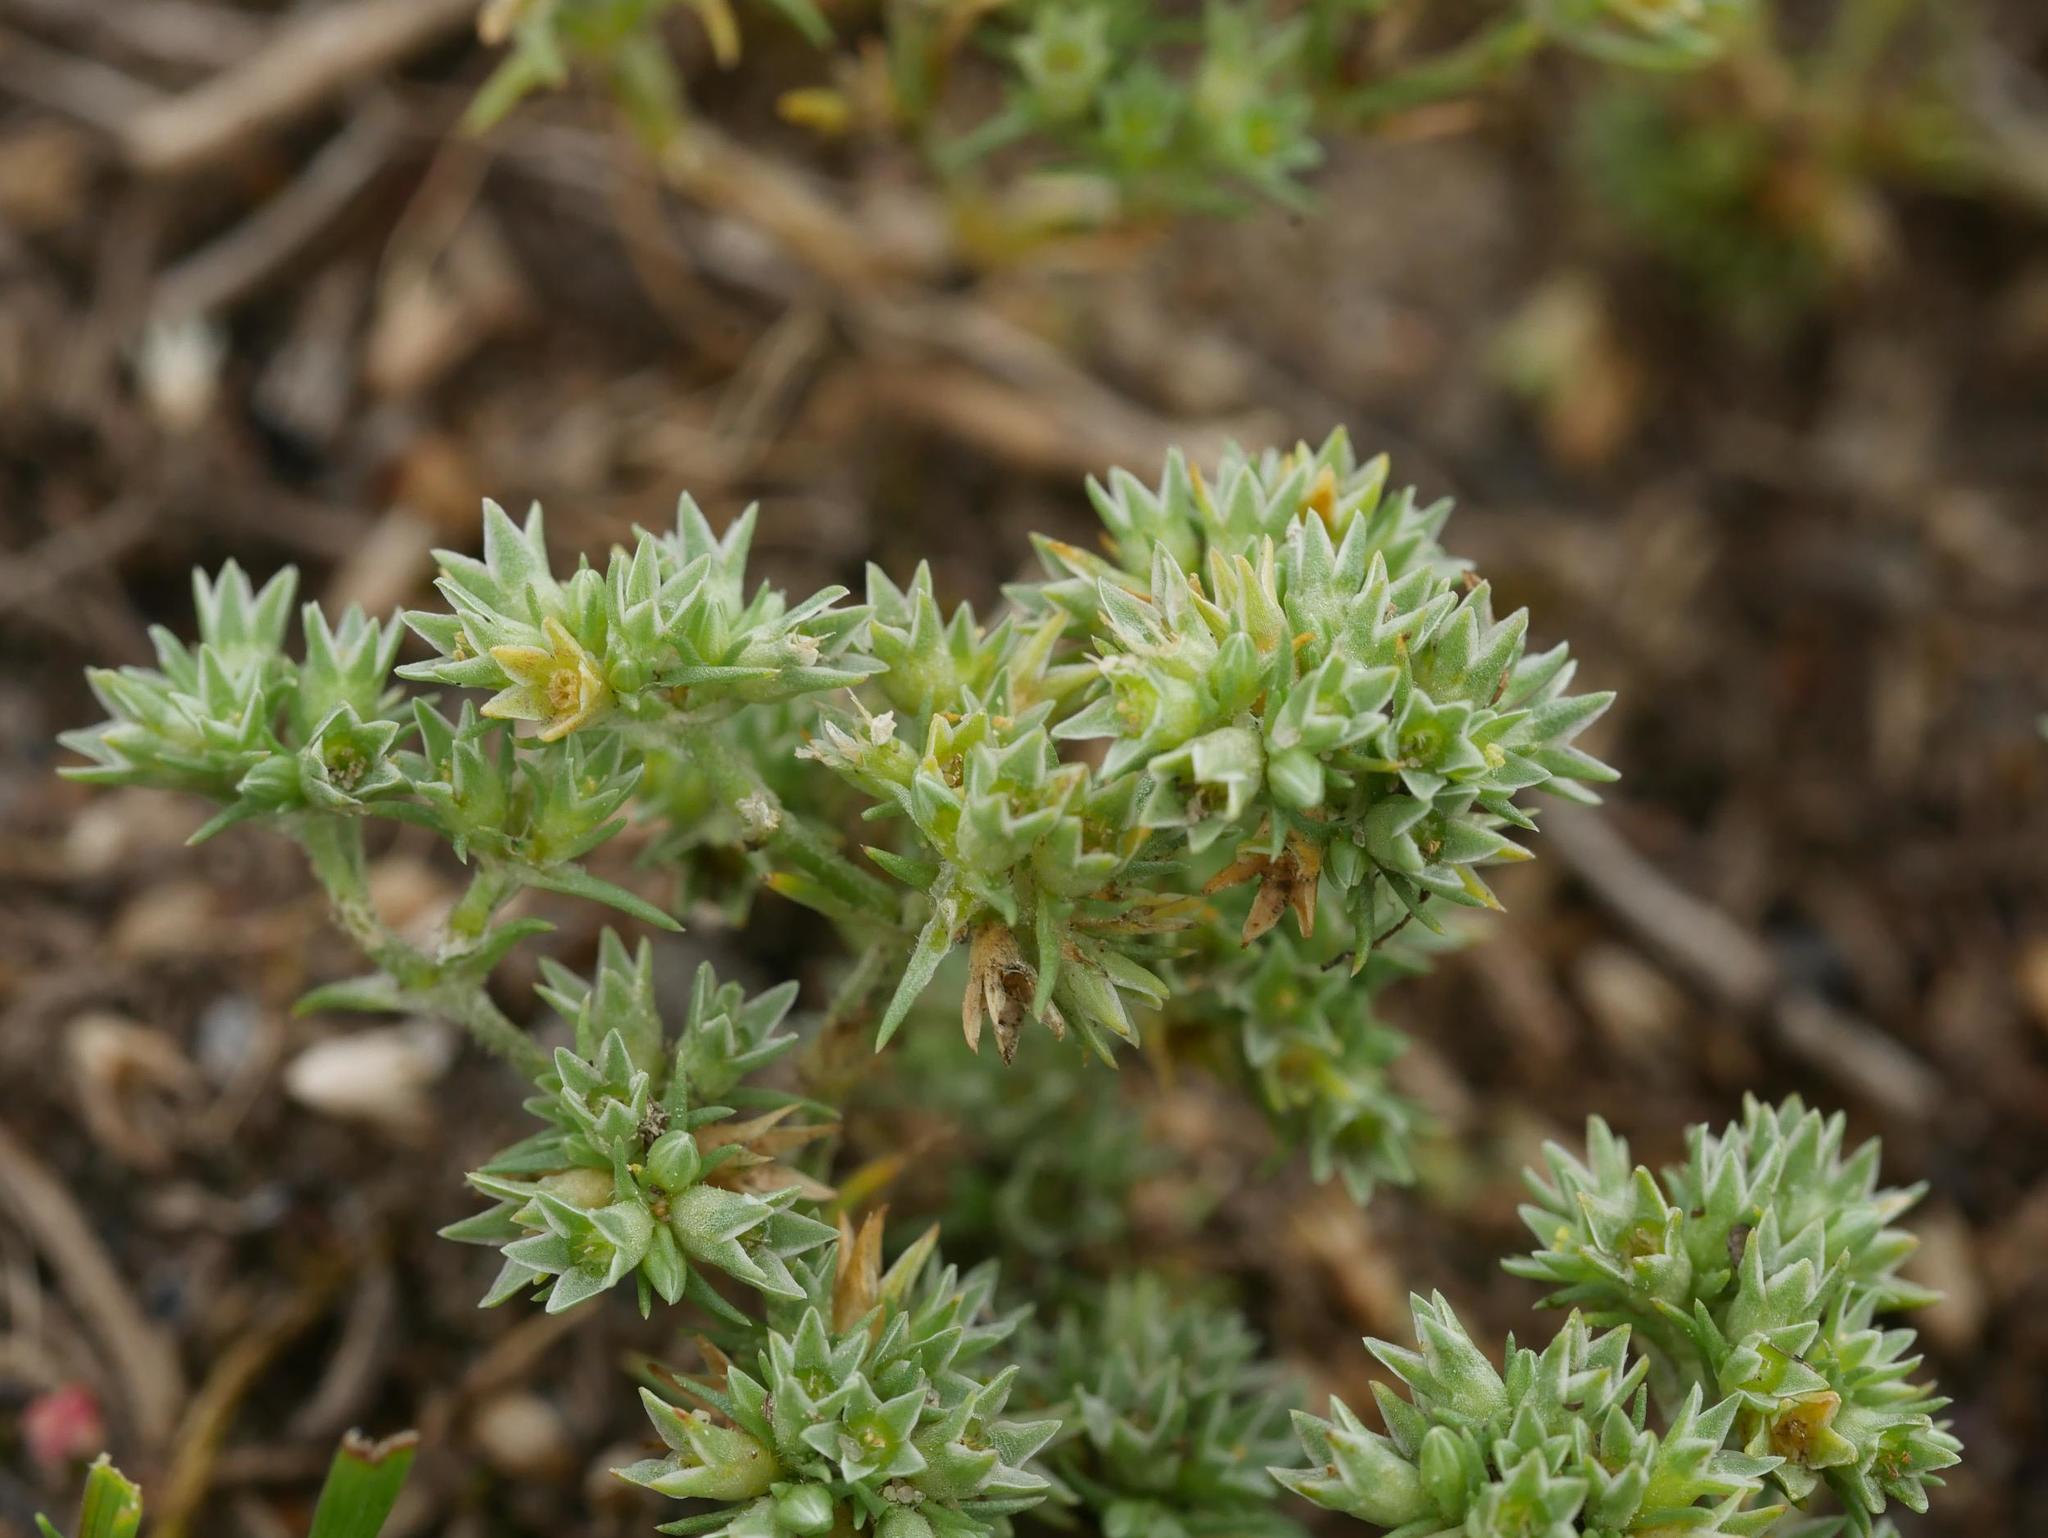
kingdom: Plantae
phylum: Tracheophyta
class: Magnoliopsida
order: Caryophyllales
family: Caryophyllaceae
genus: Scleranthus
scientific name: Scleranthus annuus
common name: Annual knawel
